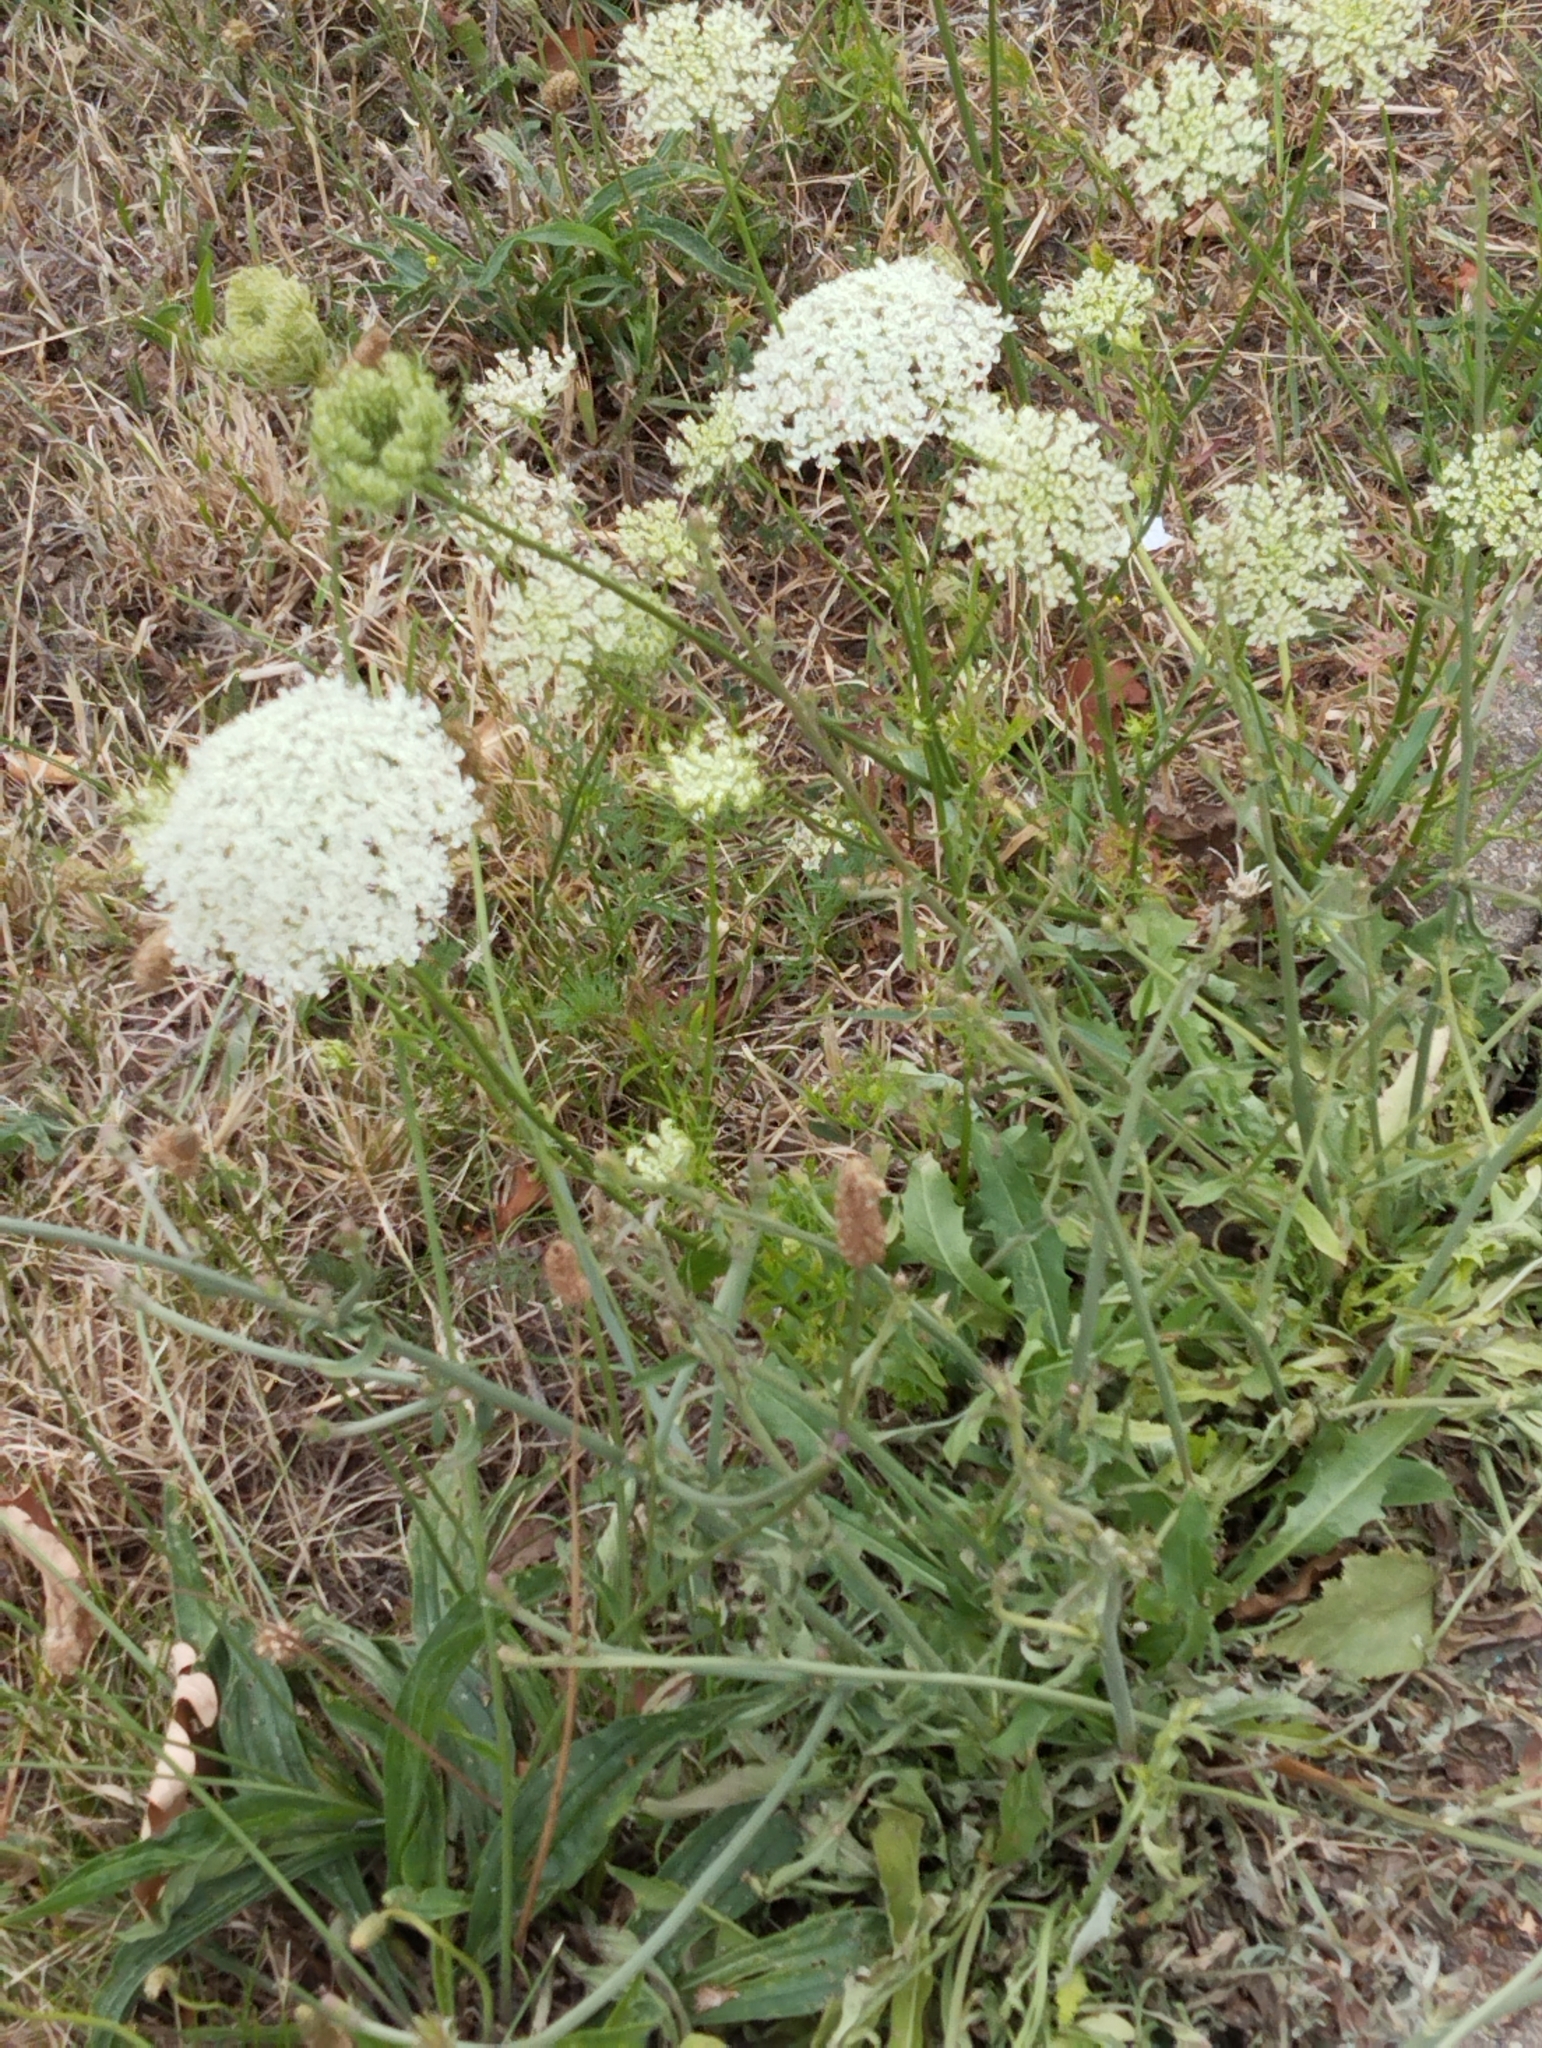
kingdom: Plantae
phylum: Tracheophyta
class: Magnoliopsida
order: Apiales
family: Apiaceae
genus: Daucus
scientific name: Daucus carota
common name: Wild carrot
